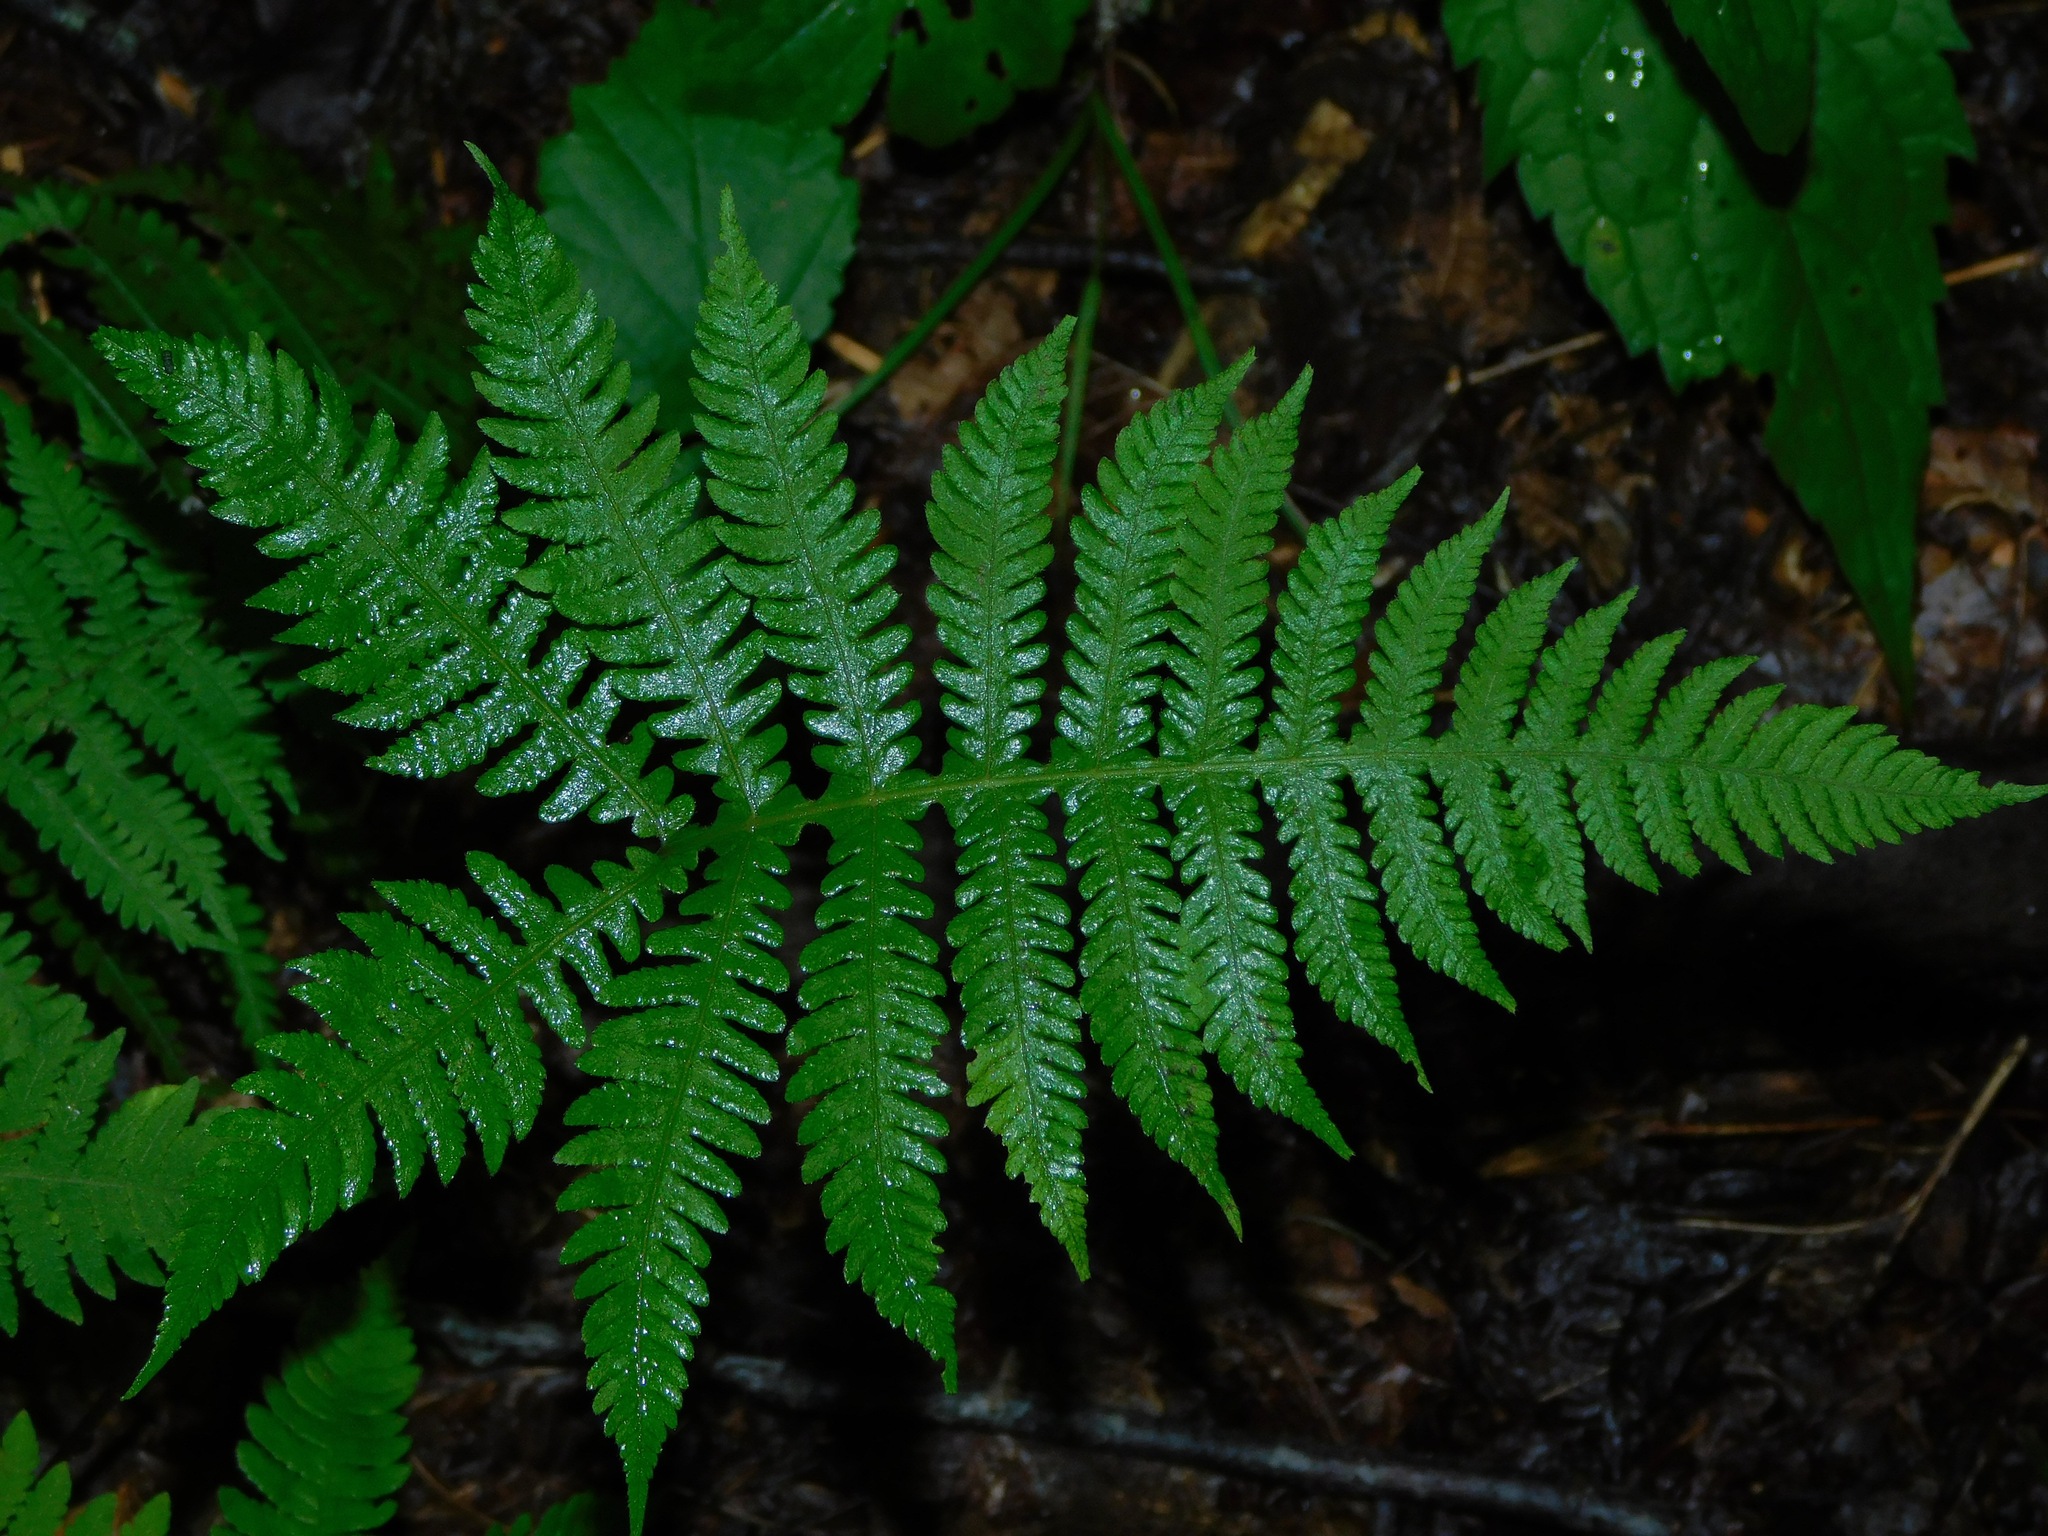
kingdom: Plantae
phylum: Tracheophyta
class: Polypodiopsida
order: Polypodiales
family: Thelypteridaceae
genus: Phegopteris
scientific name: Phegopteris hexagonoptera
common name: Broad beech fern
